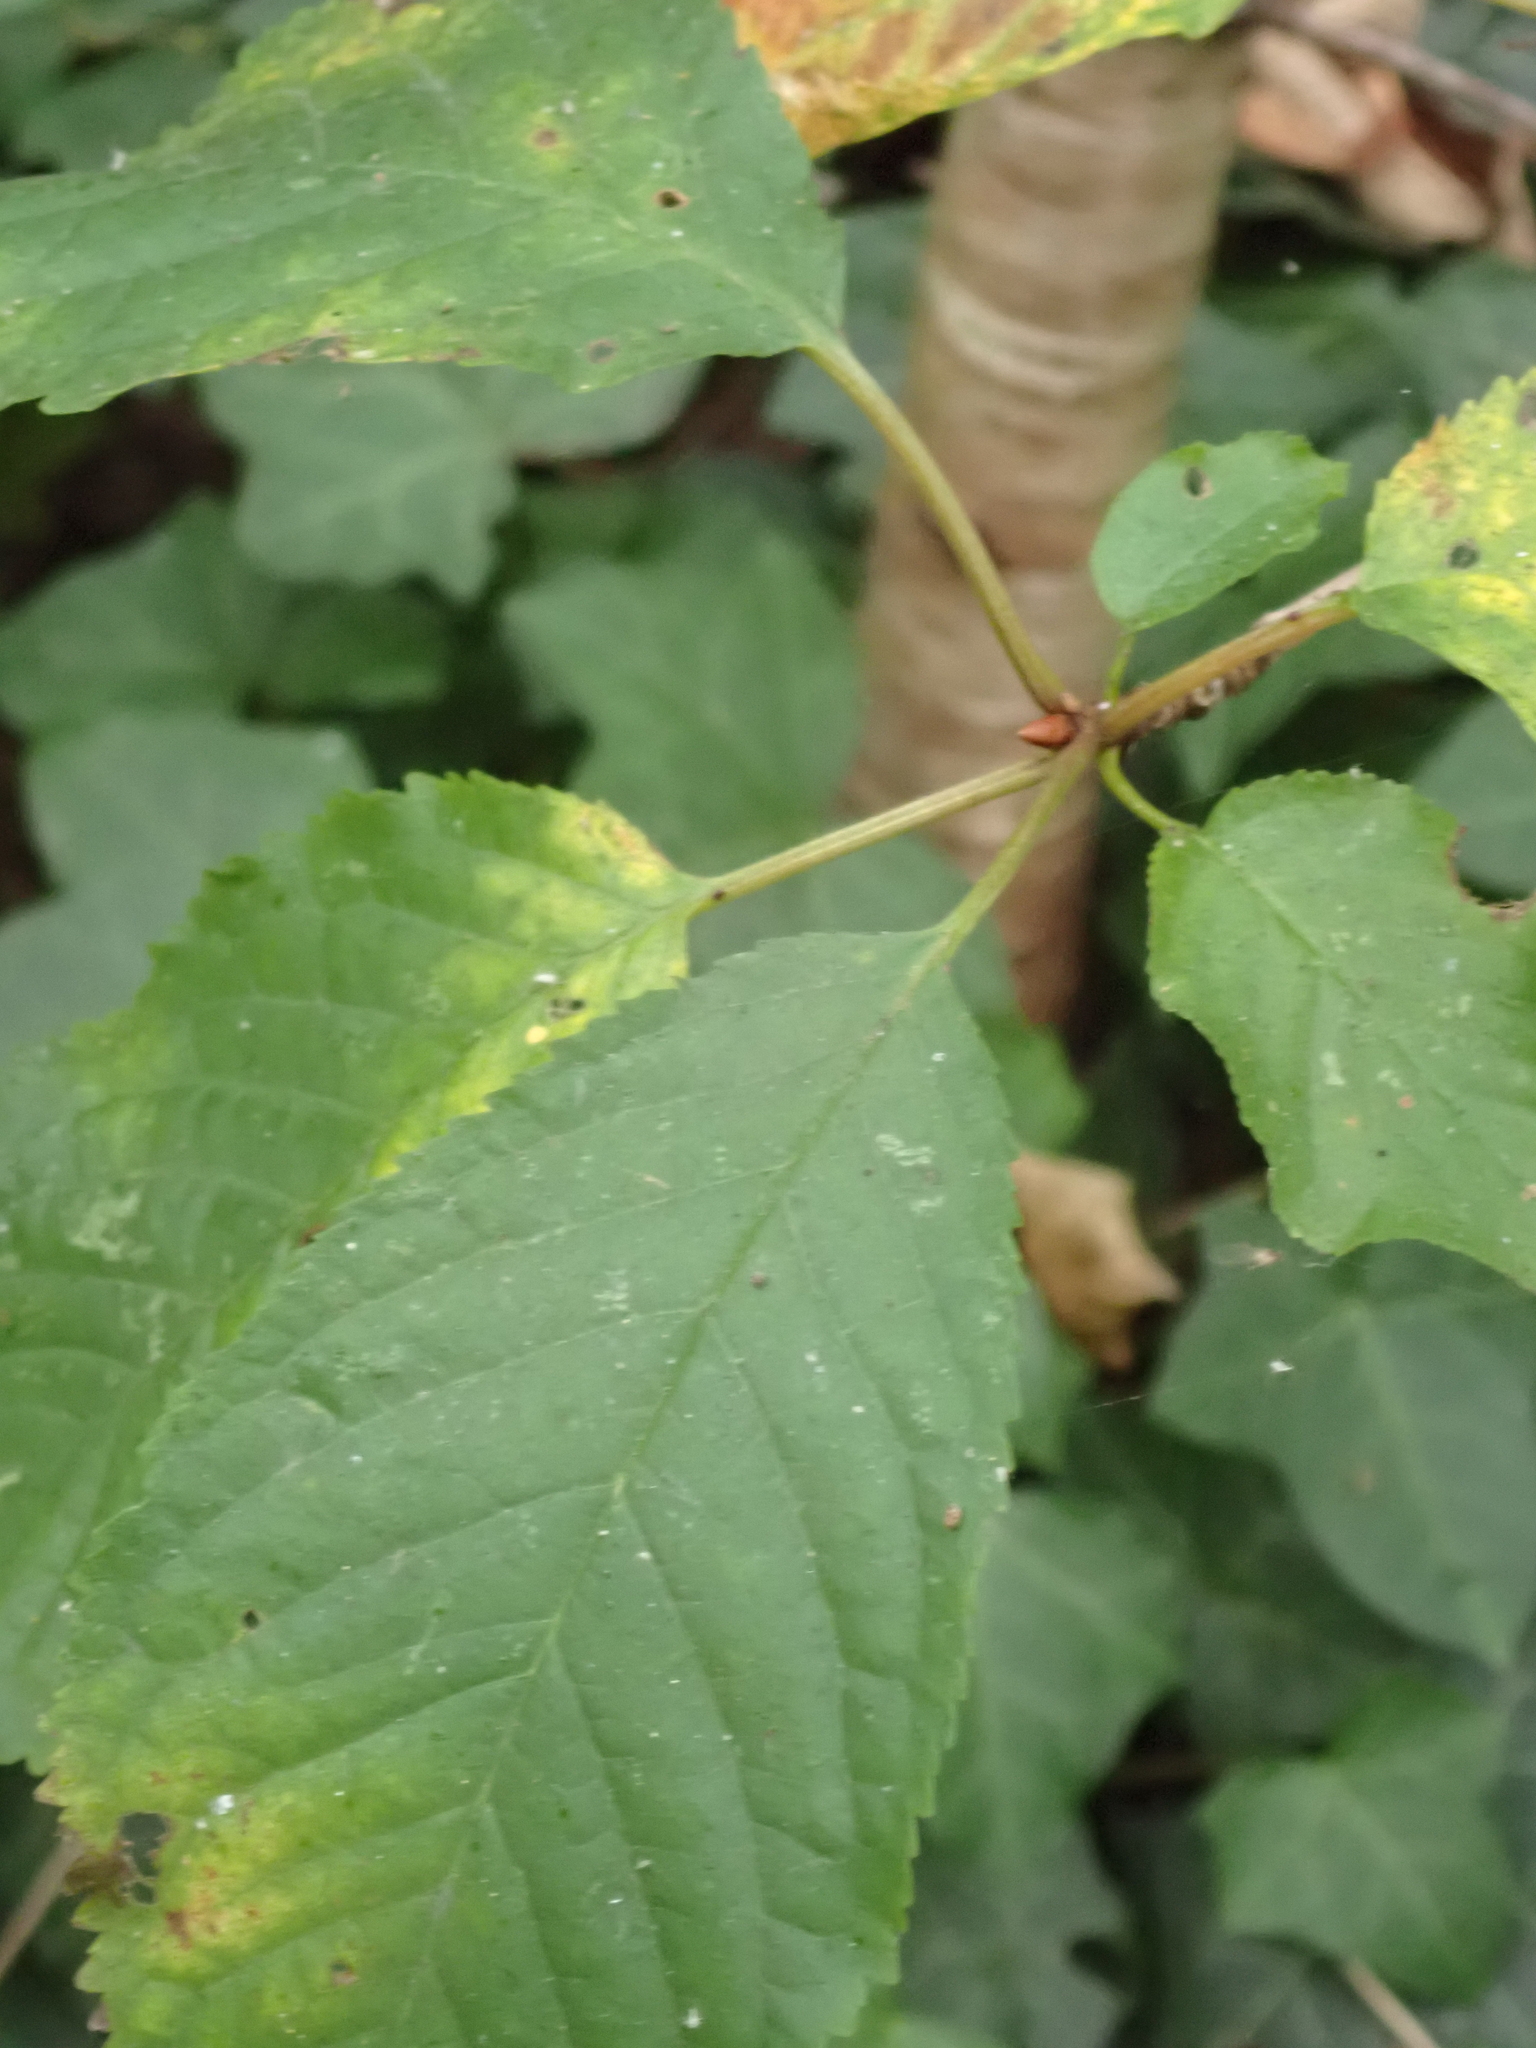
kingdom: Plantae
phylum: Tracheophyta
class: Magnoliopsida
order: Rosales
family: Rosaceae
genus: Prunus
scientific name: Prunus avium
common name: Sweet cherry
